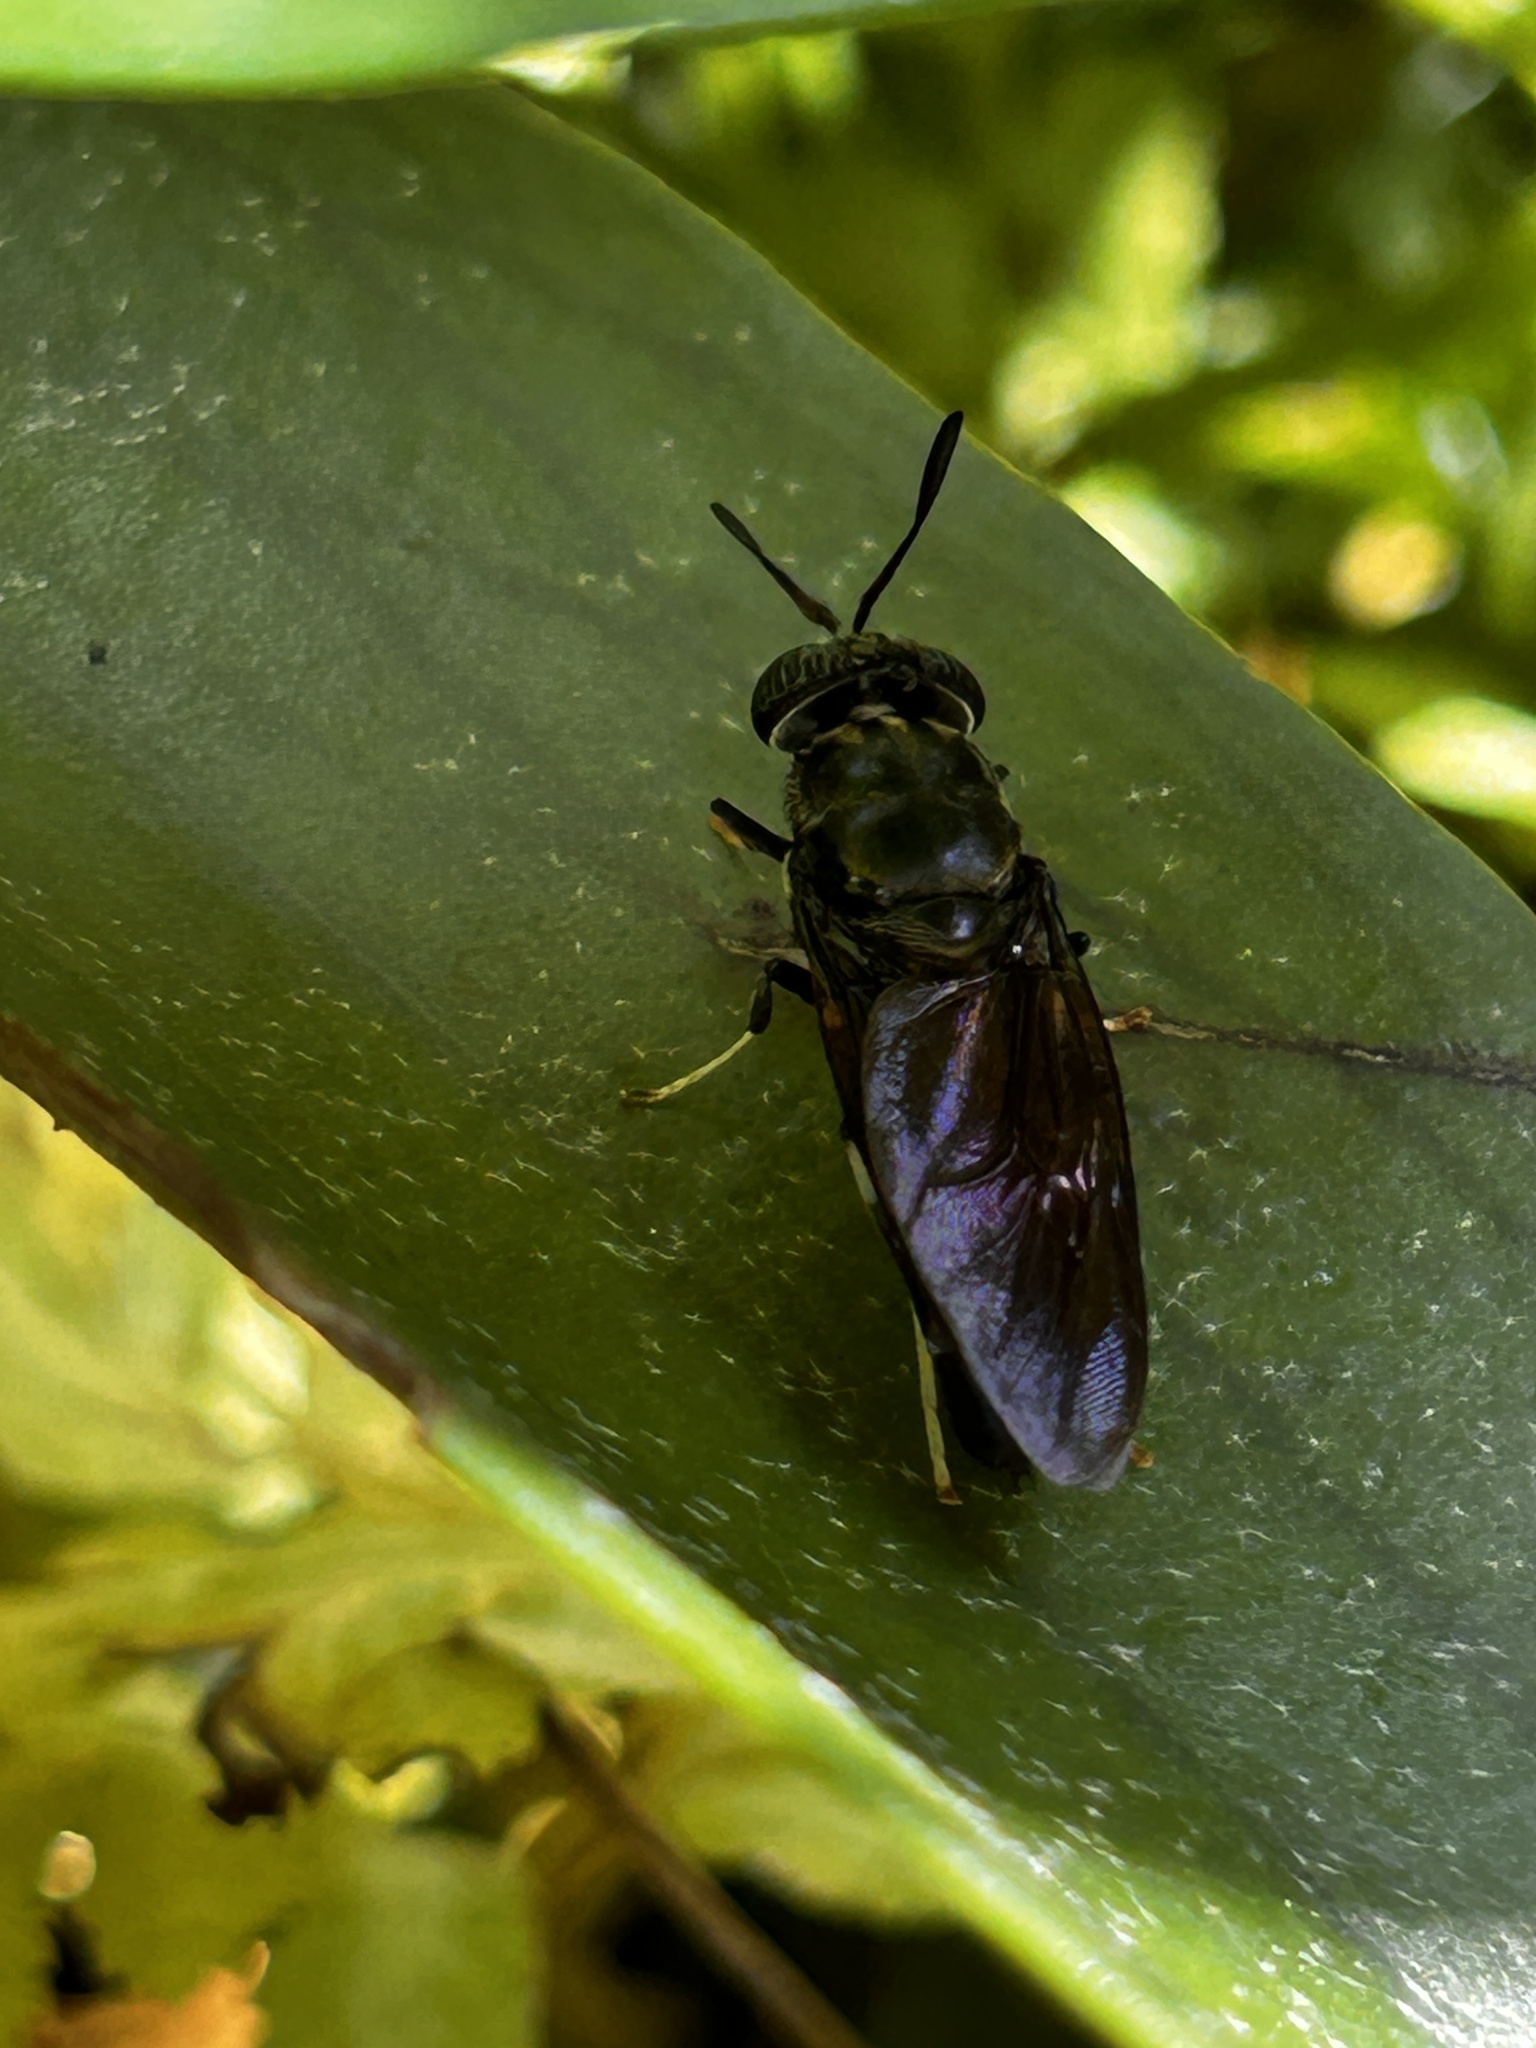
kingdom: Animalia
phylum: Arthropoda
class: Insecta
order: Diptera
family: Stratiomyidae
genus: Hermetia
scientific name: Hermetia illucens
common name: Black soldier fly
